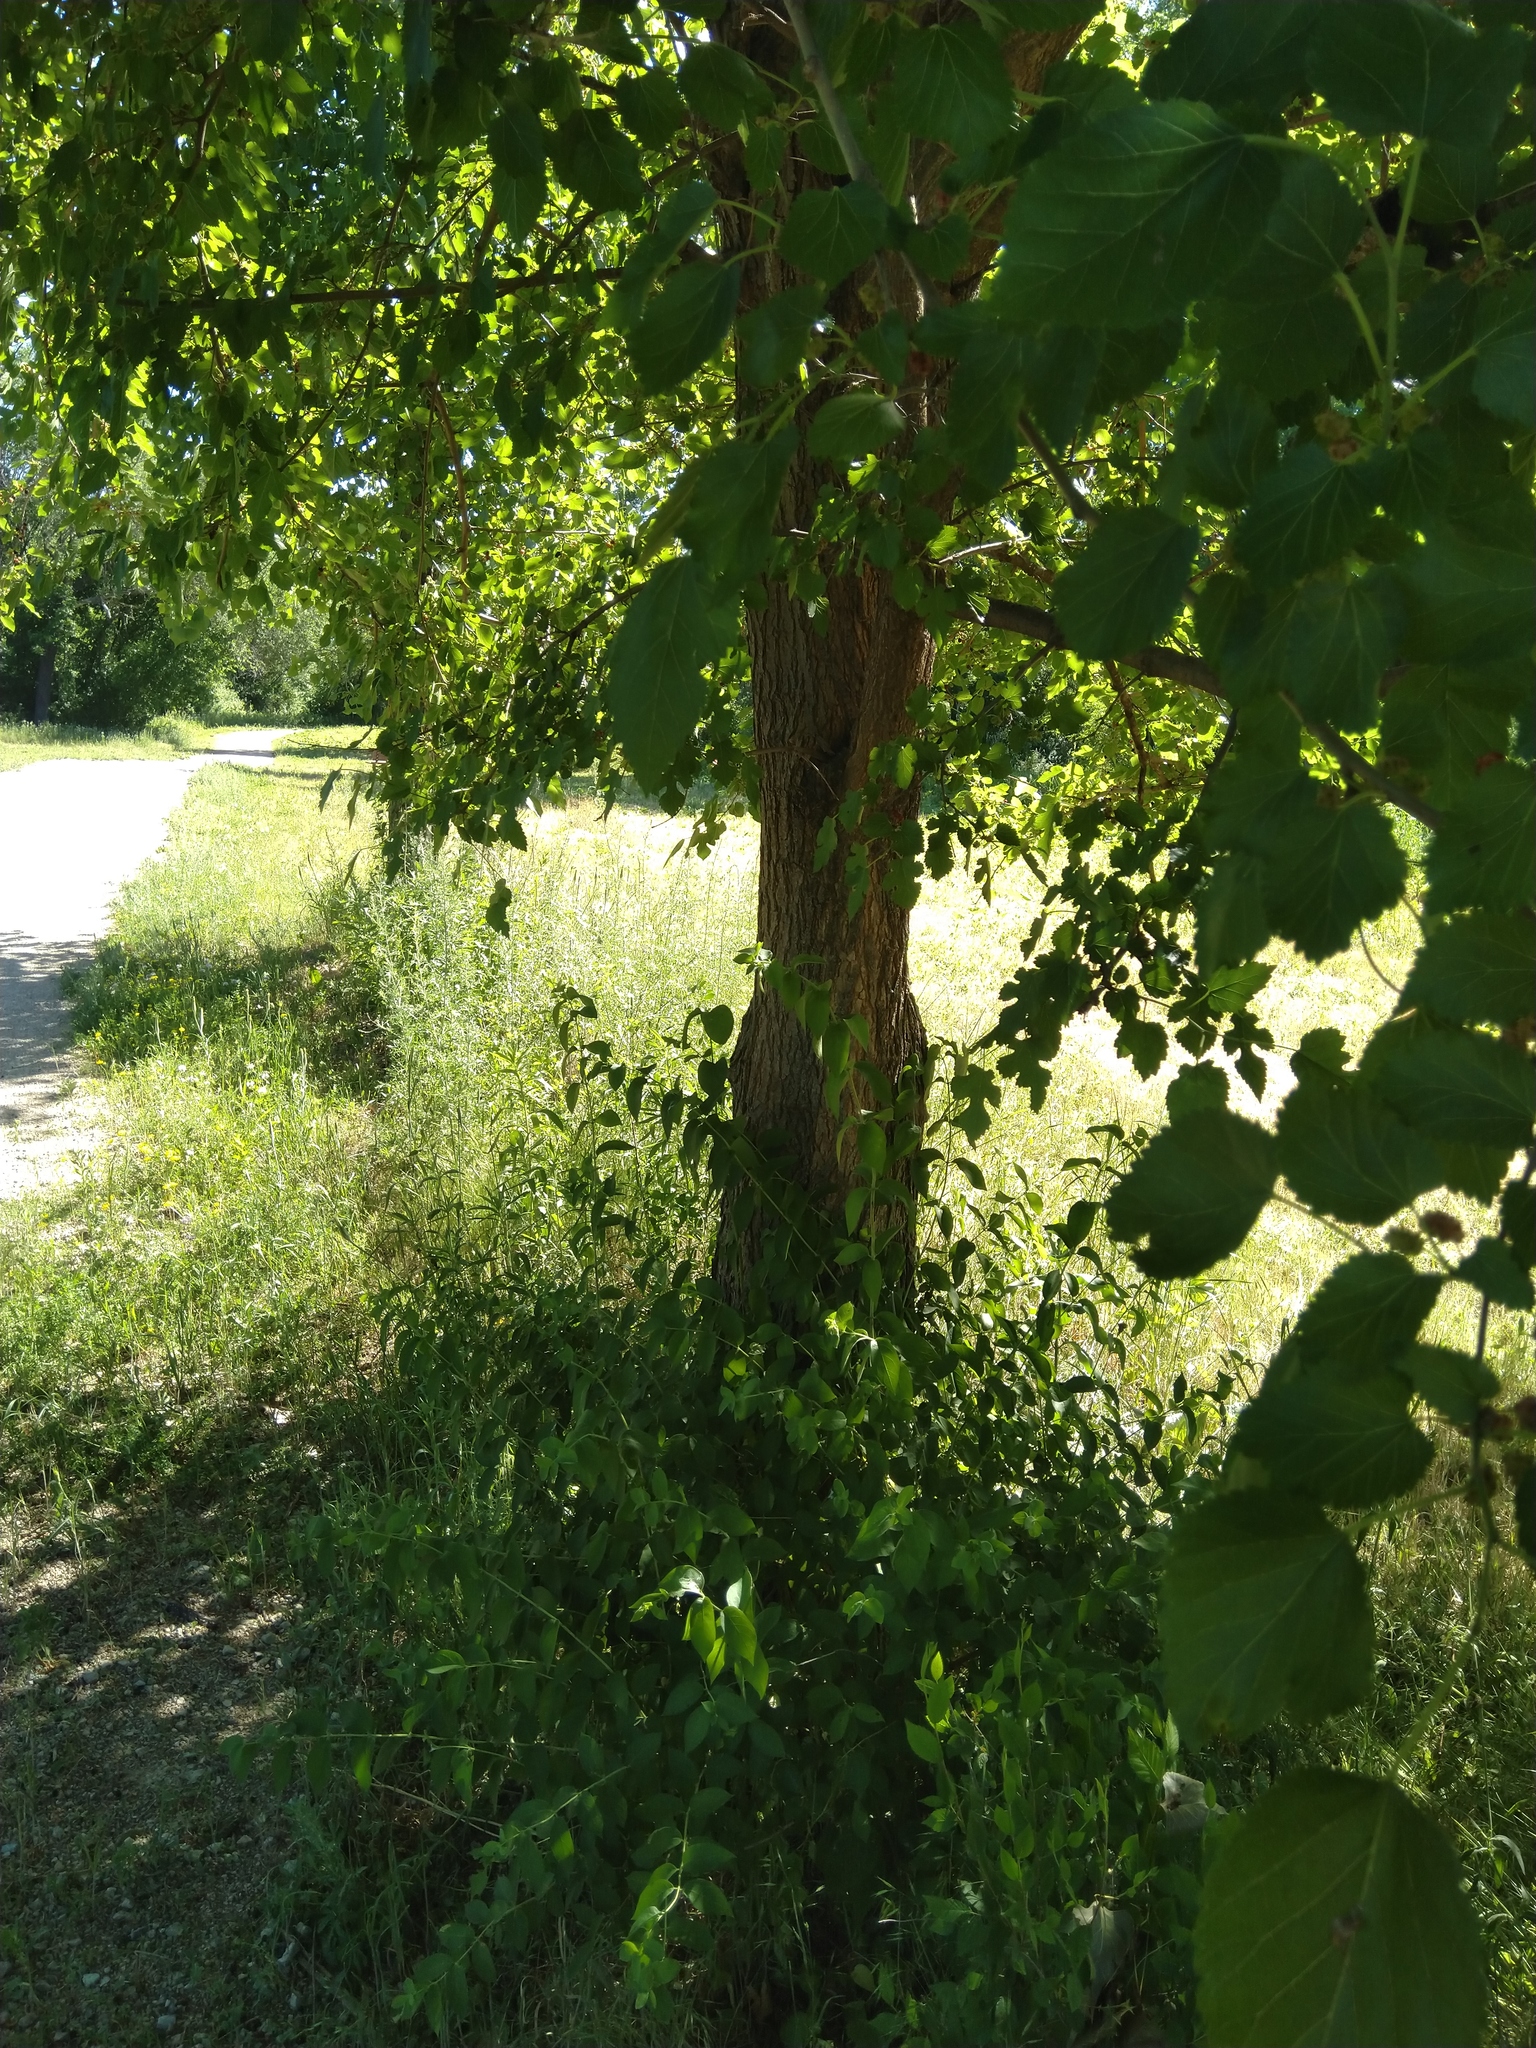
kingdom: Plantae
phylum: Tracheophyta
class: Magnoliopsida
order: Rosales
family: Moraceae
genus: Morus
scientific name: Morus alba
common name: White mulberry
